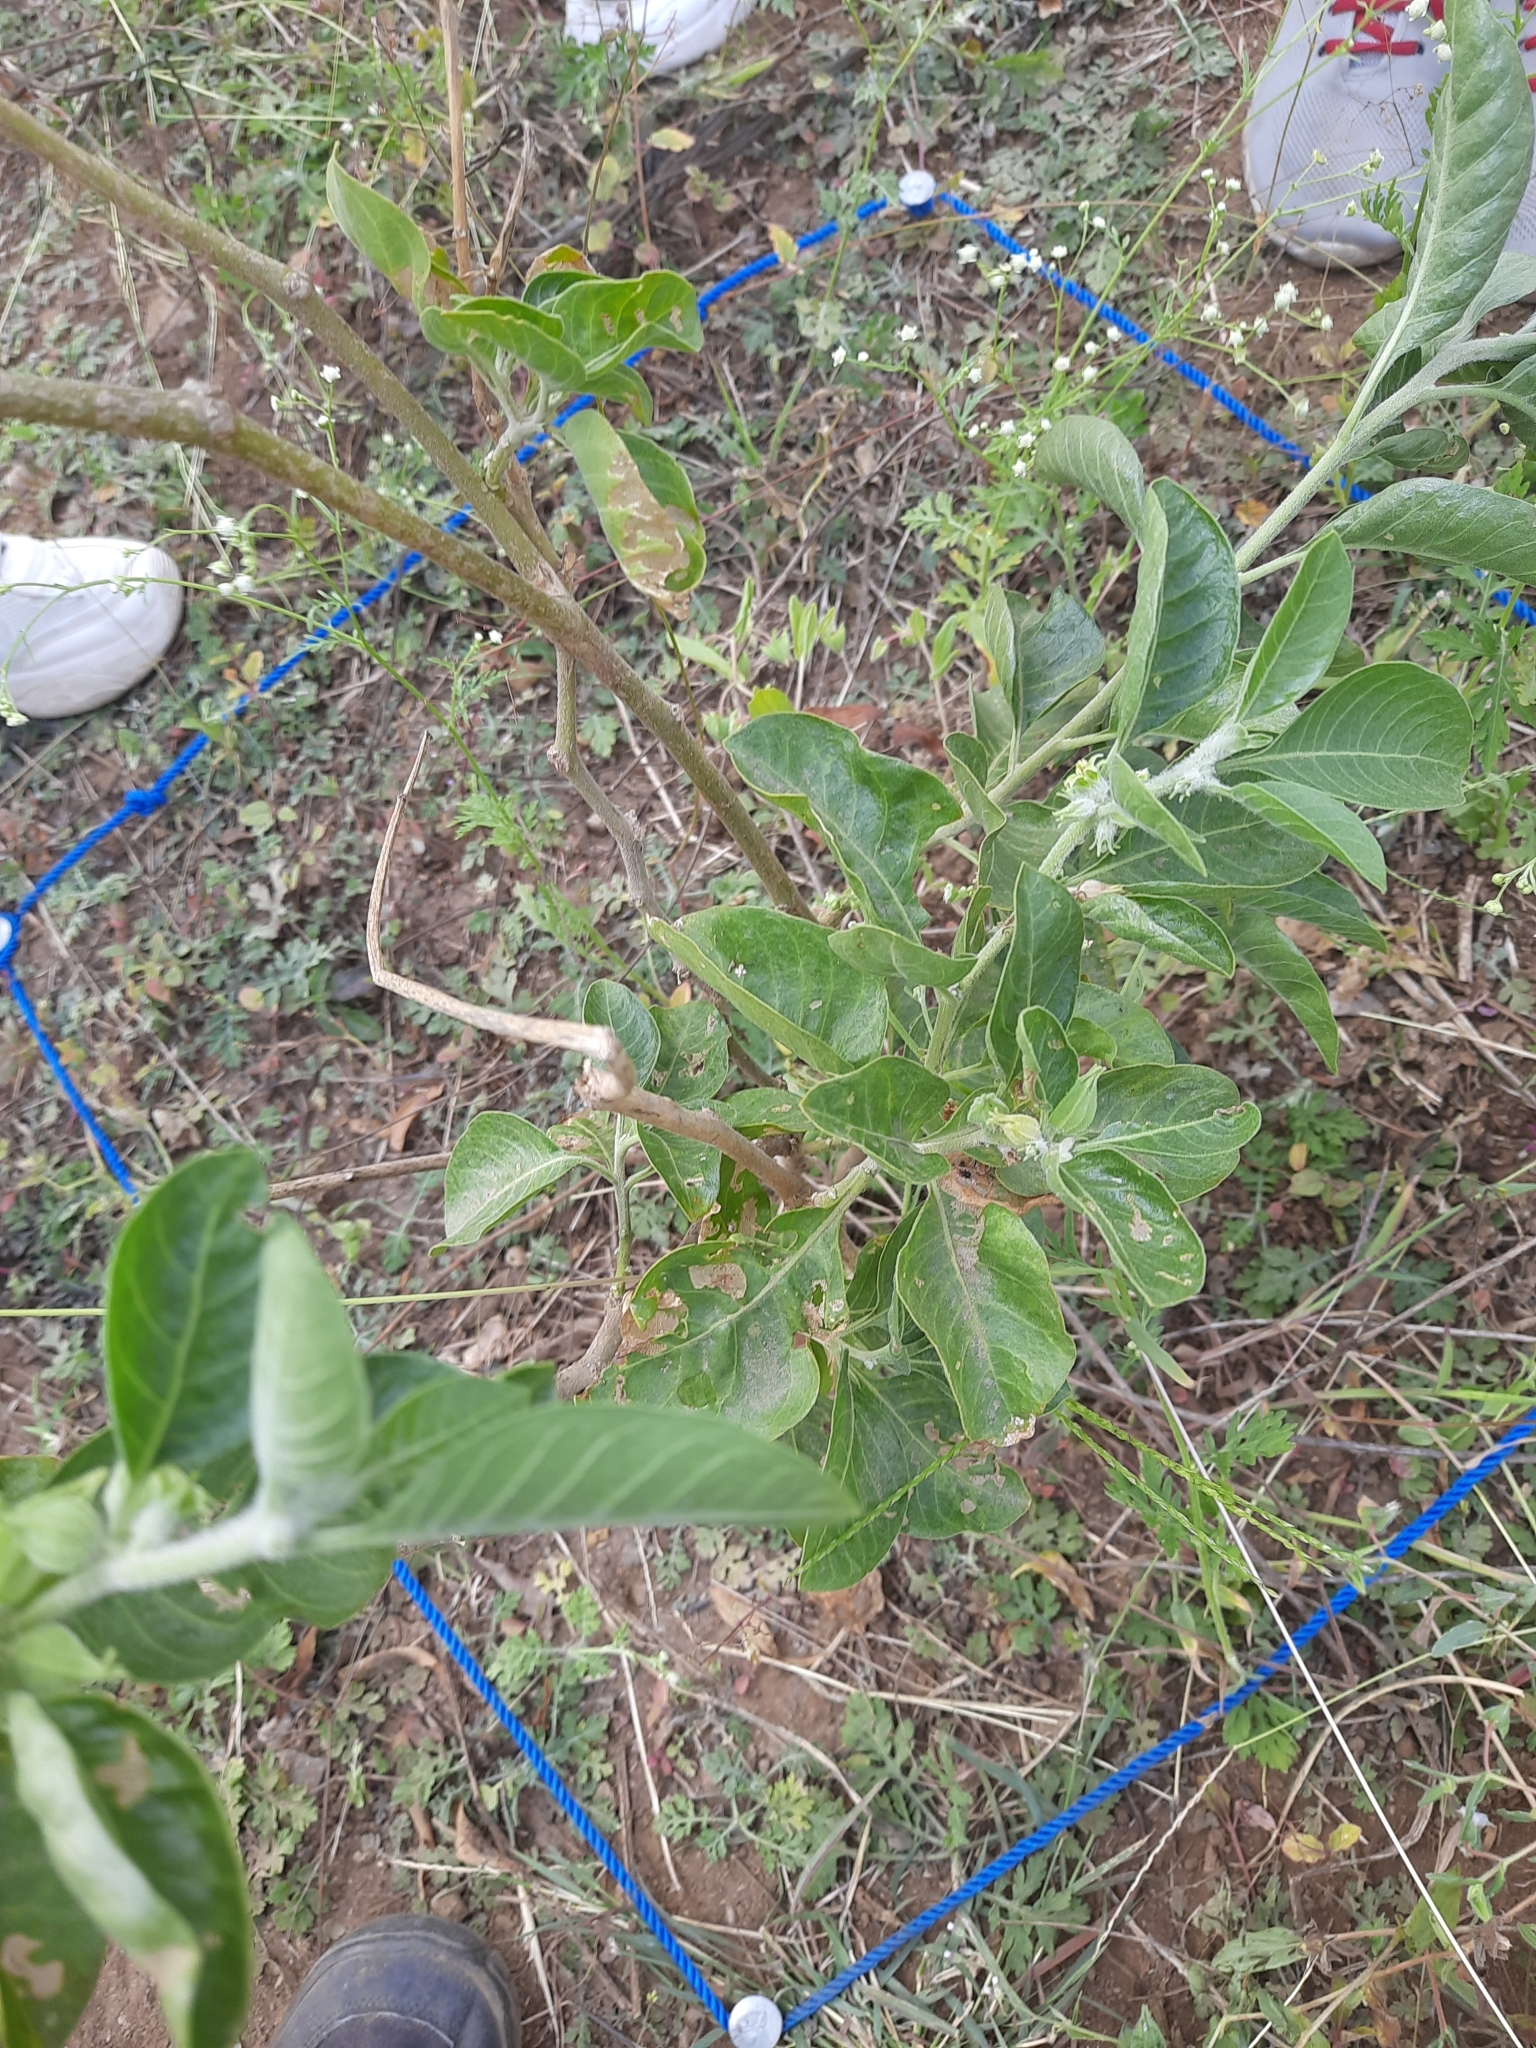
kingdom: Plantae
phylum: Tracheophyta
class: Magnoliopsida
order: Solanales
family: Solanaceae
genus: Withania
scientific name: Withania somnifera
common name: Winter-cherry
